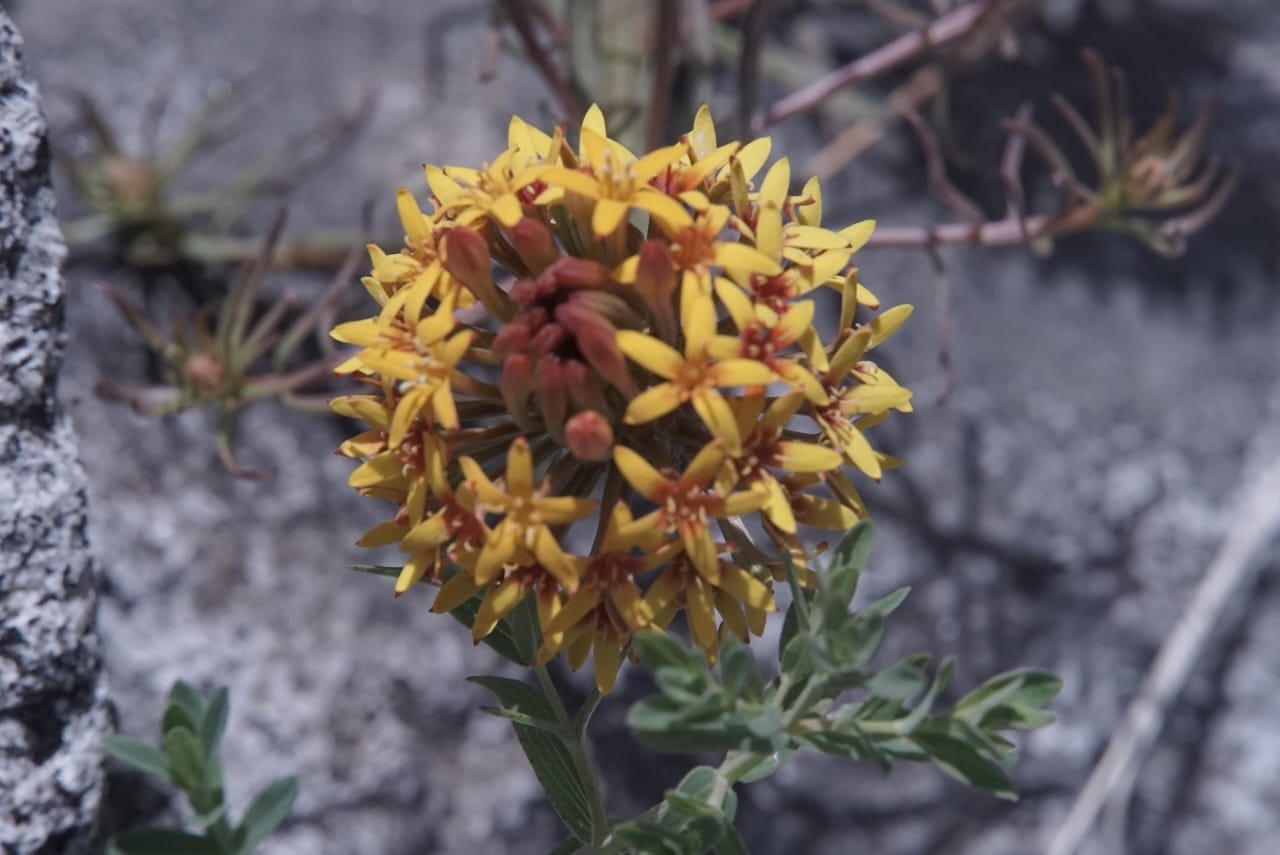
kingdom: Plantae
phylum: Tracheophyta
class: Magnoliopsida
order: Santalales
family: Schoepfiaceae
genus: Quinchamalium
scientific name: Quinchamalium chilense
